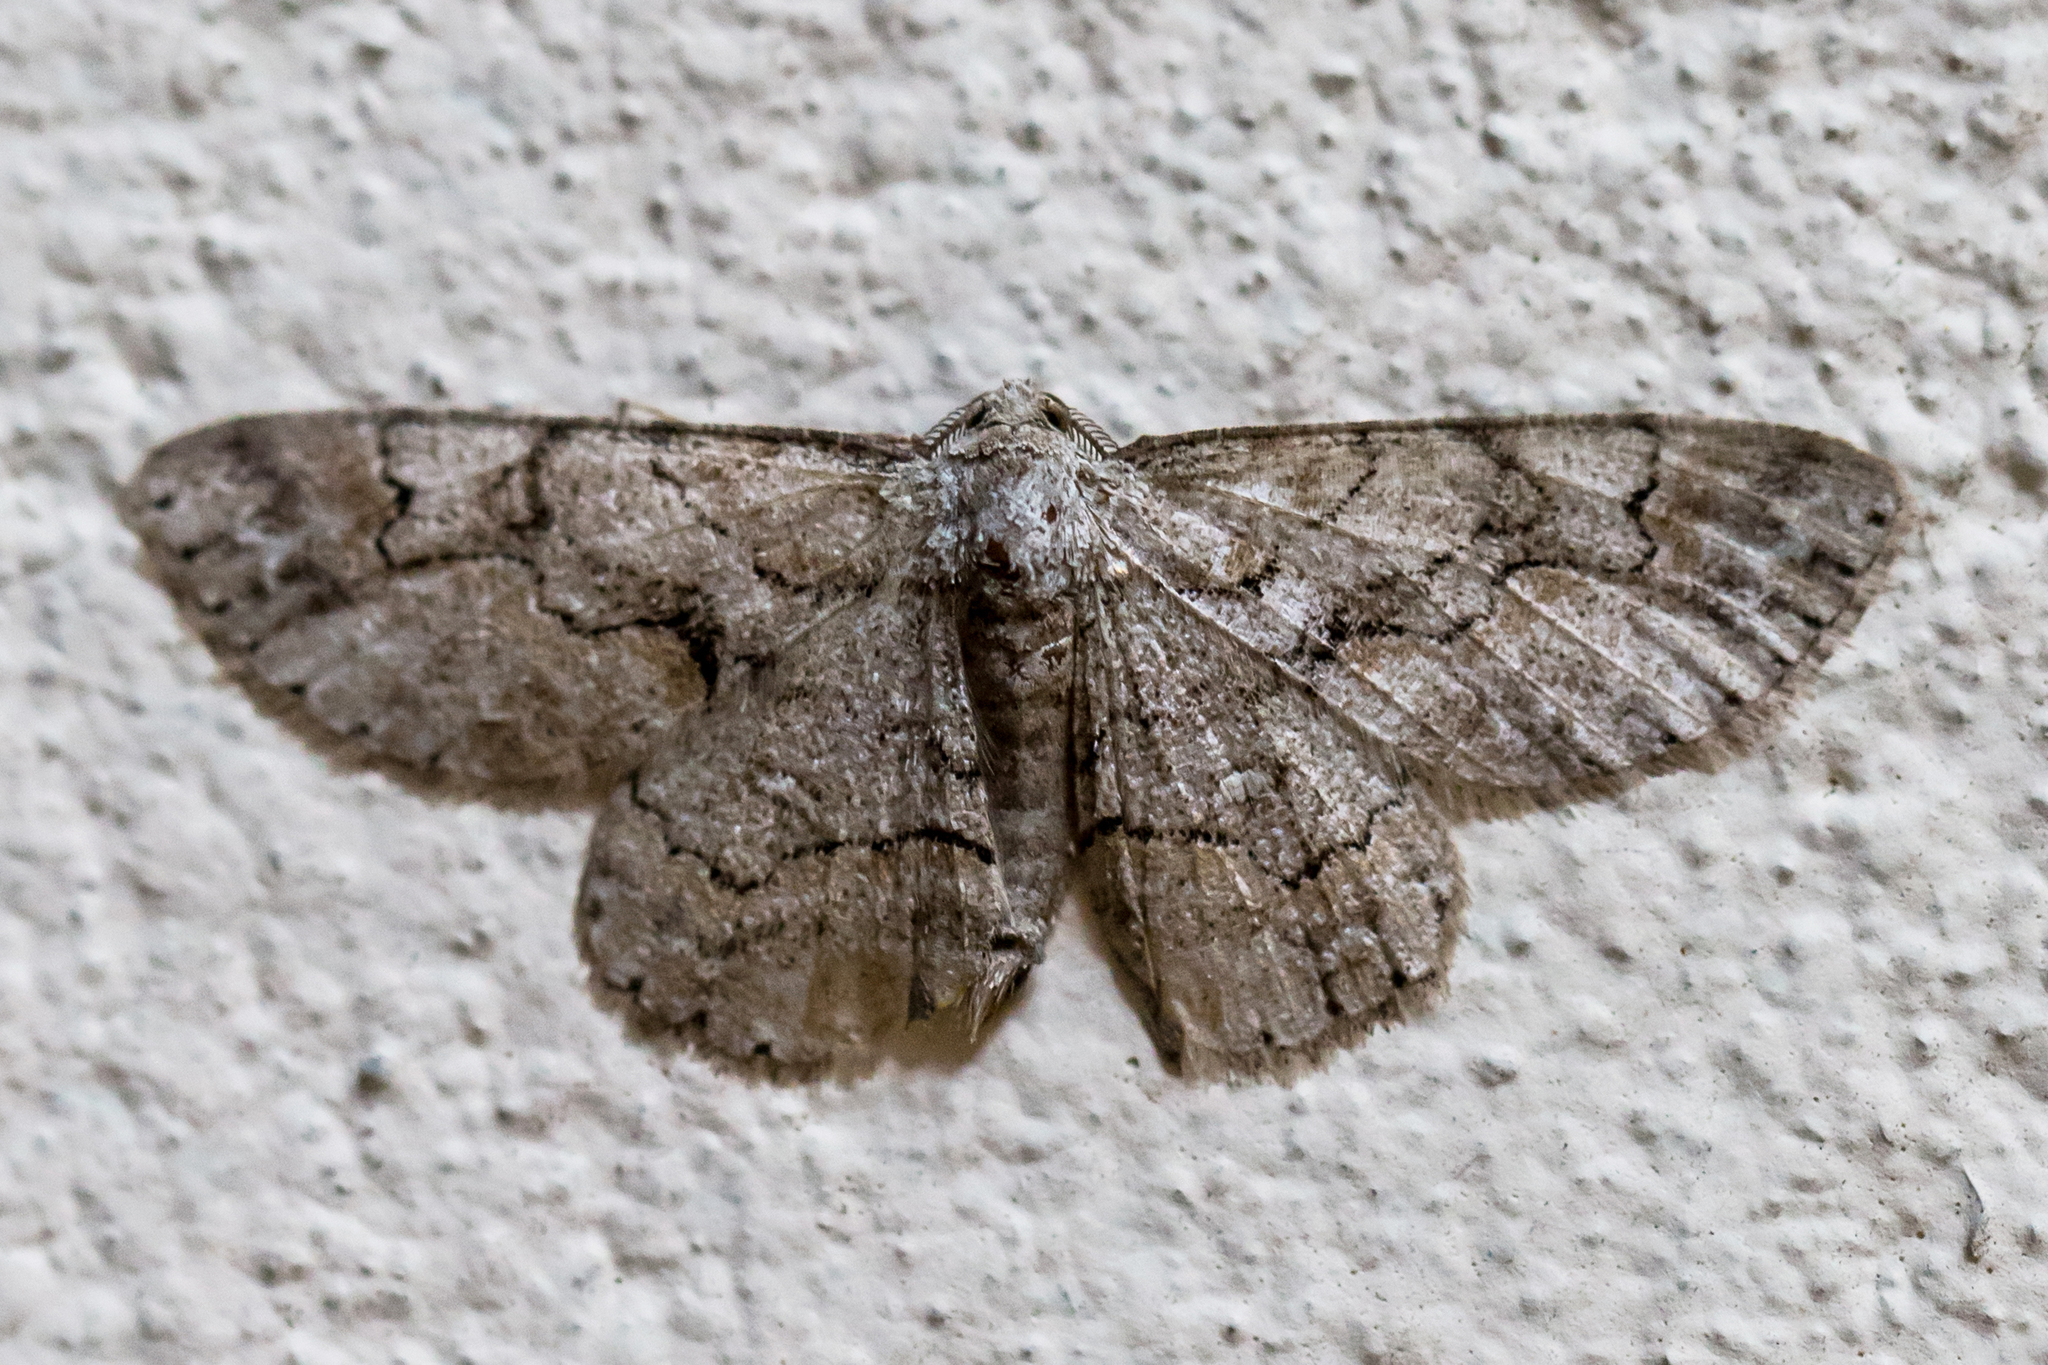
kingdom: Animalia
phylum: Arthropoda
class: Insecta
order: Lepidoptera
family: Geometridae
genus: Iridopsis
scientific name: Iridopsis defectaria
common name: Brown-shaded gray
